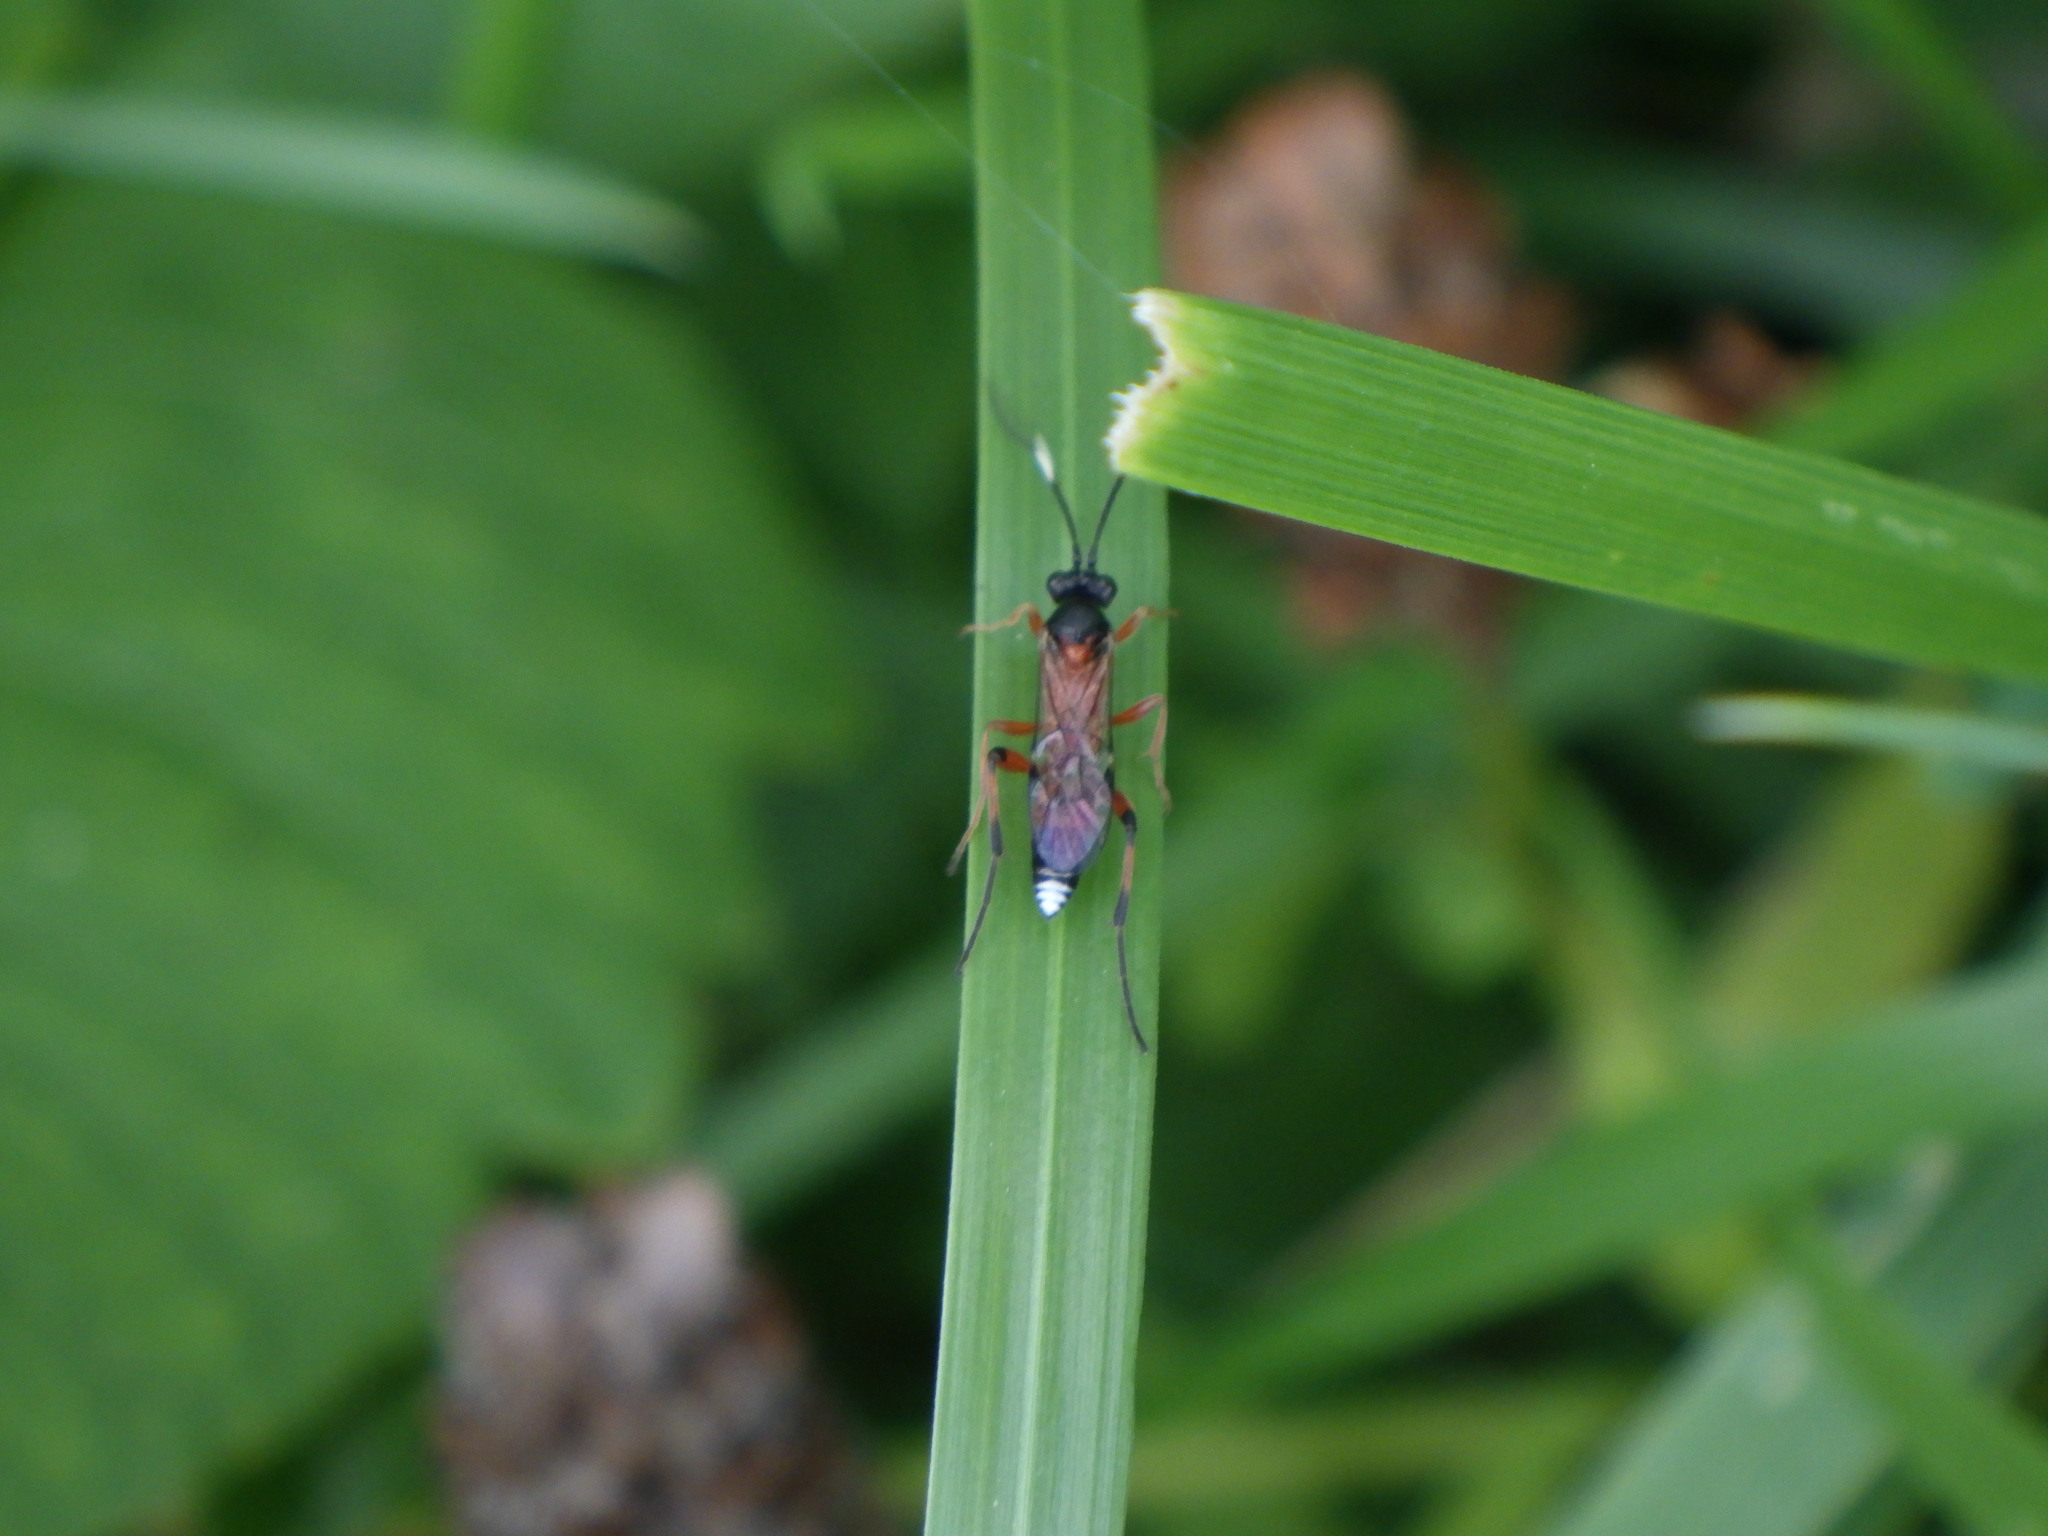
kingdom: Animalia
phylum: Arthropoda
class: Insecta
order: Hymenoptera
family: Ichneumonidae
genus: Linycus
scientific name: Linycus exhortator
